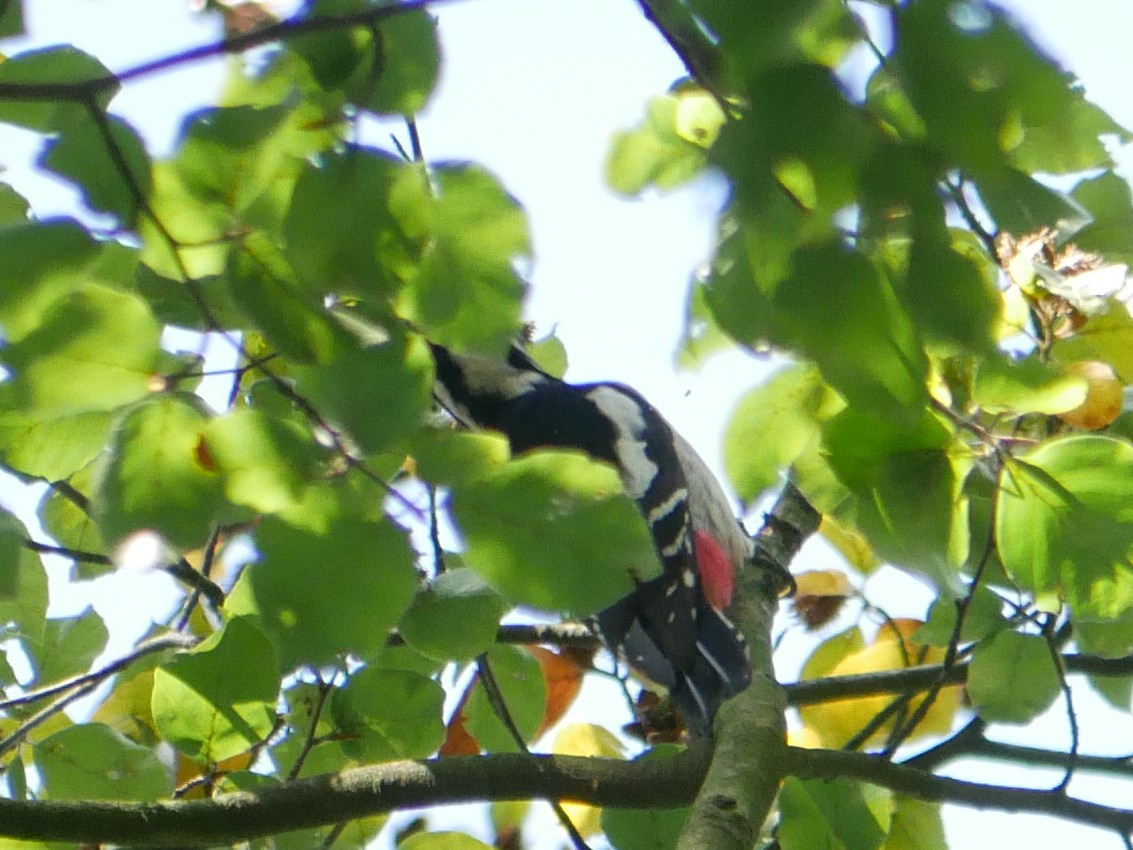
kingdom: Animalia
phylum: Chordata
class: Aves
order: Piciformes
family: Picidae
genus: Dendrocopos
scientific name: Dendrocopos major
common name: Great spotted woodpecker
